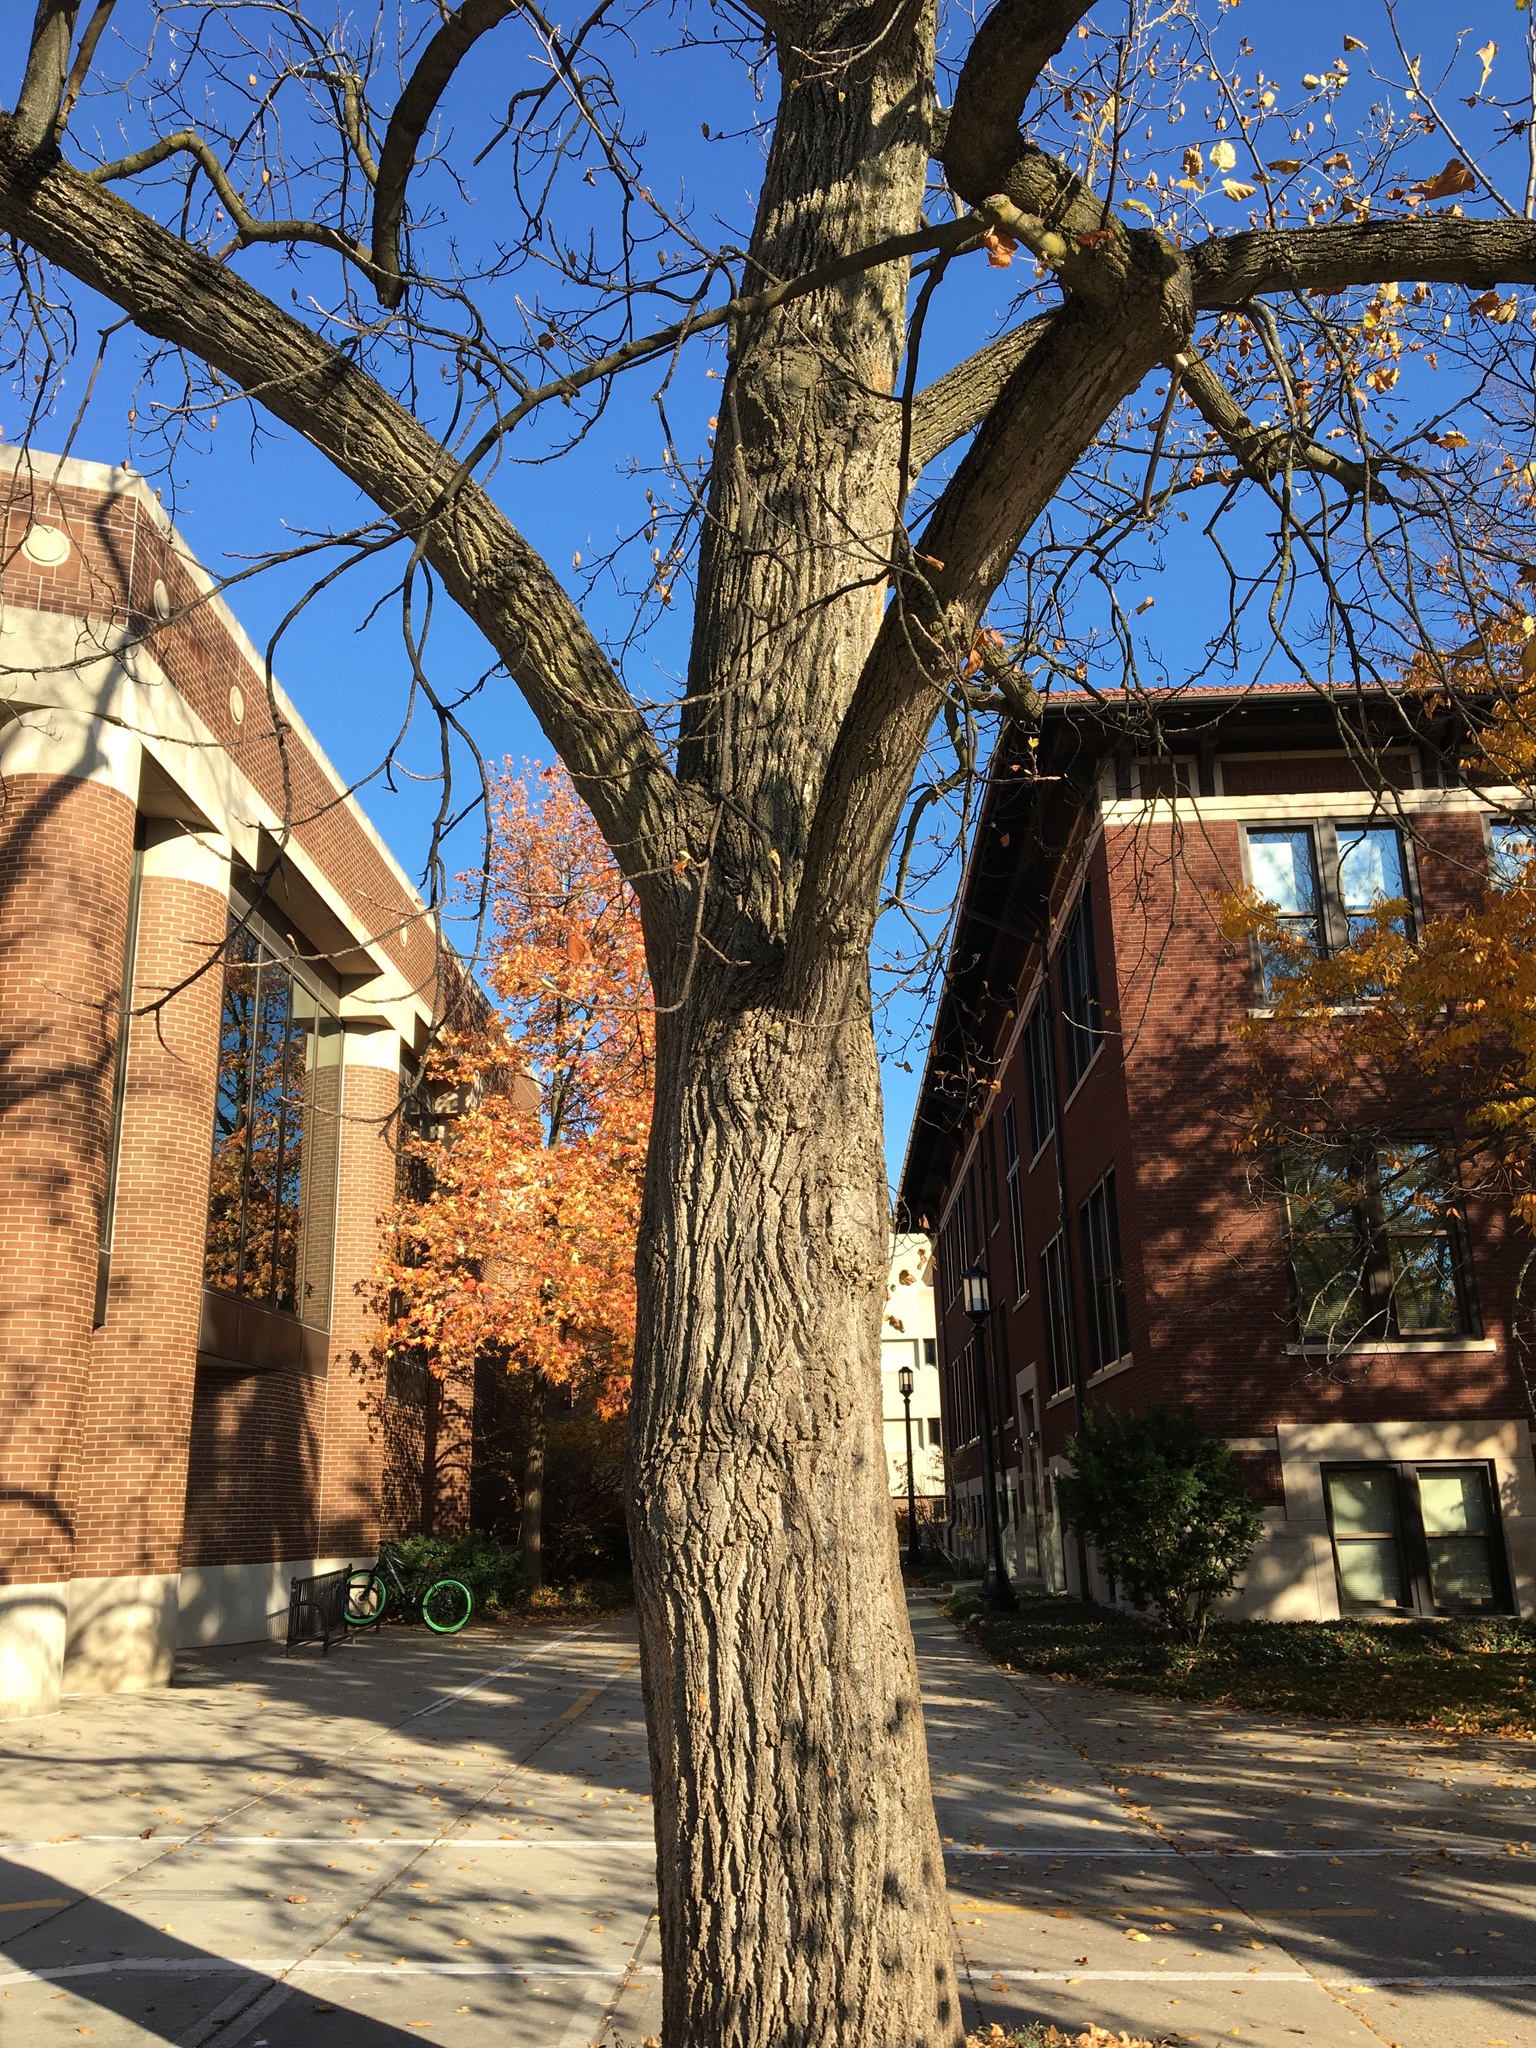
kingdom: Plantae
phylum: Tracheophyta
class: Magnoliopsida
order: Magnoliales
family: Magnoliaceae
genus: Liriodendron
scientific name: Liriodendron tulipifera
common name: Tulip tree
